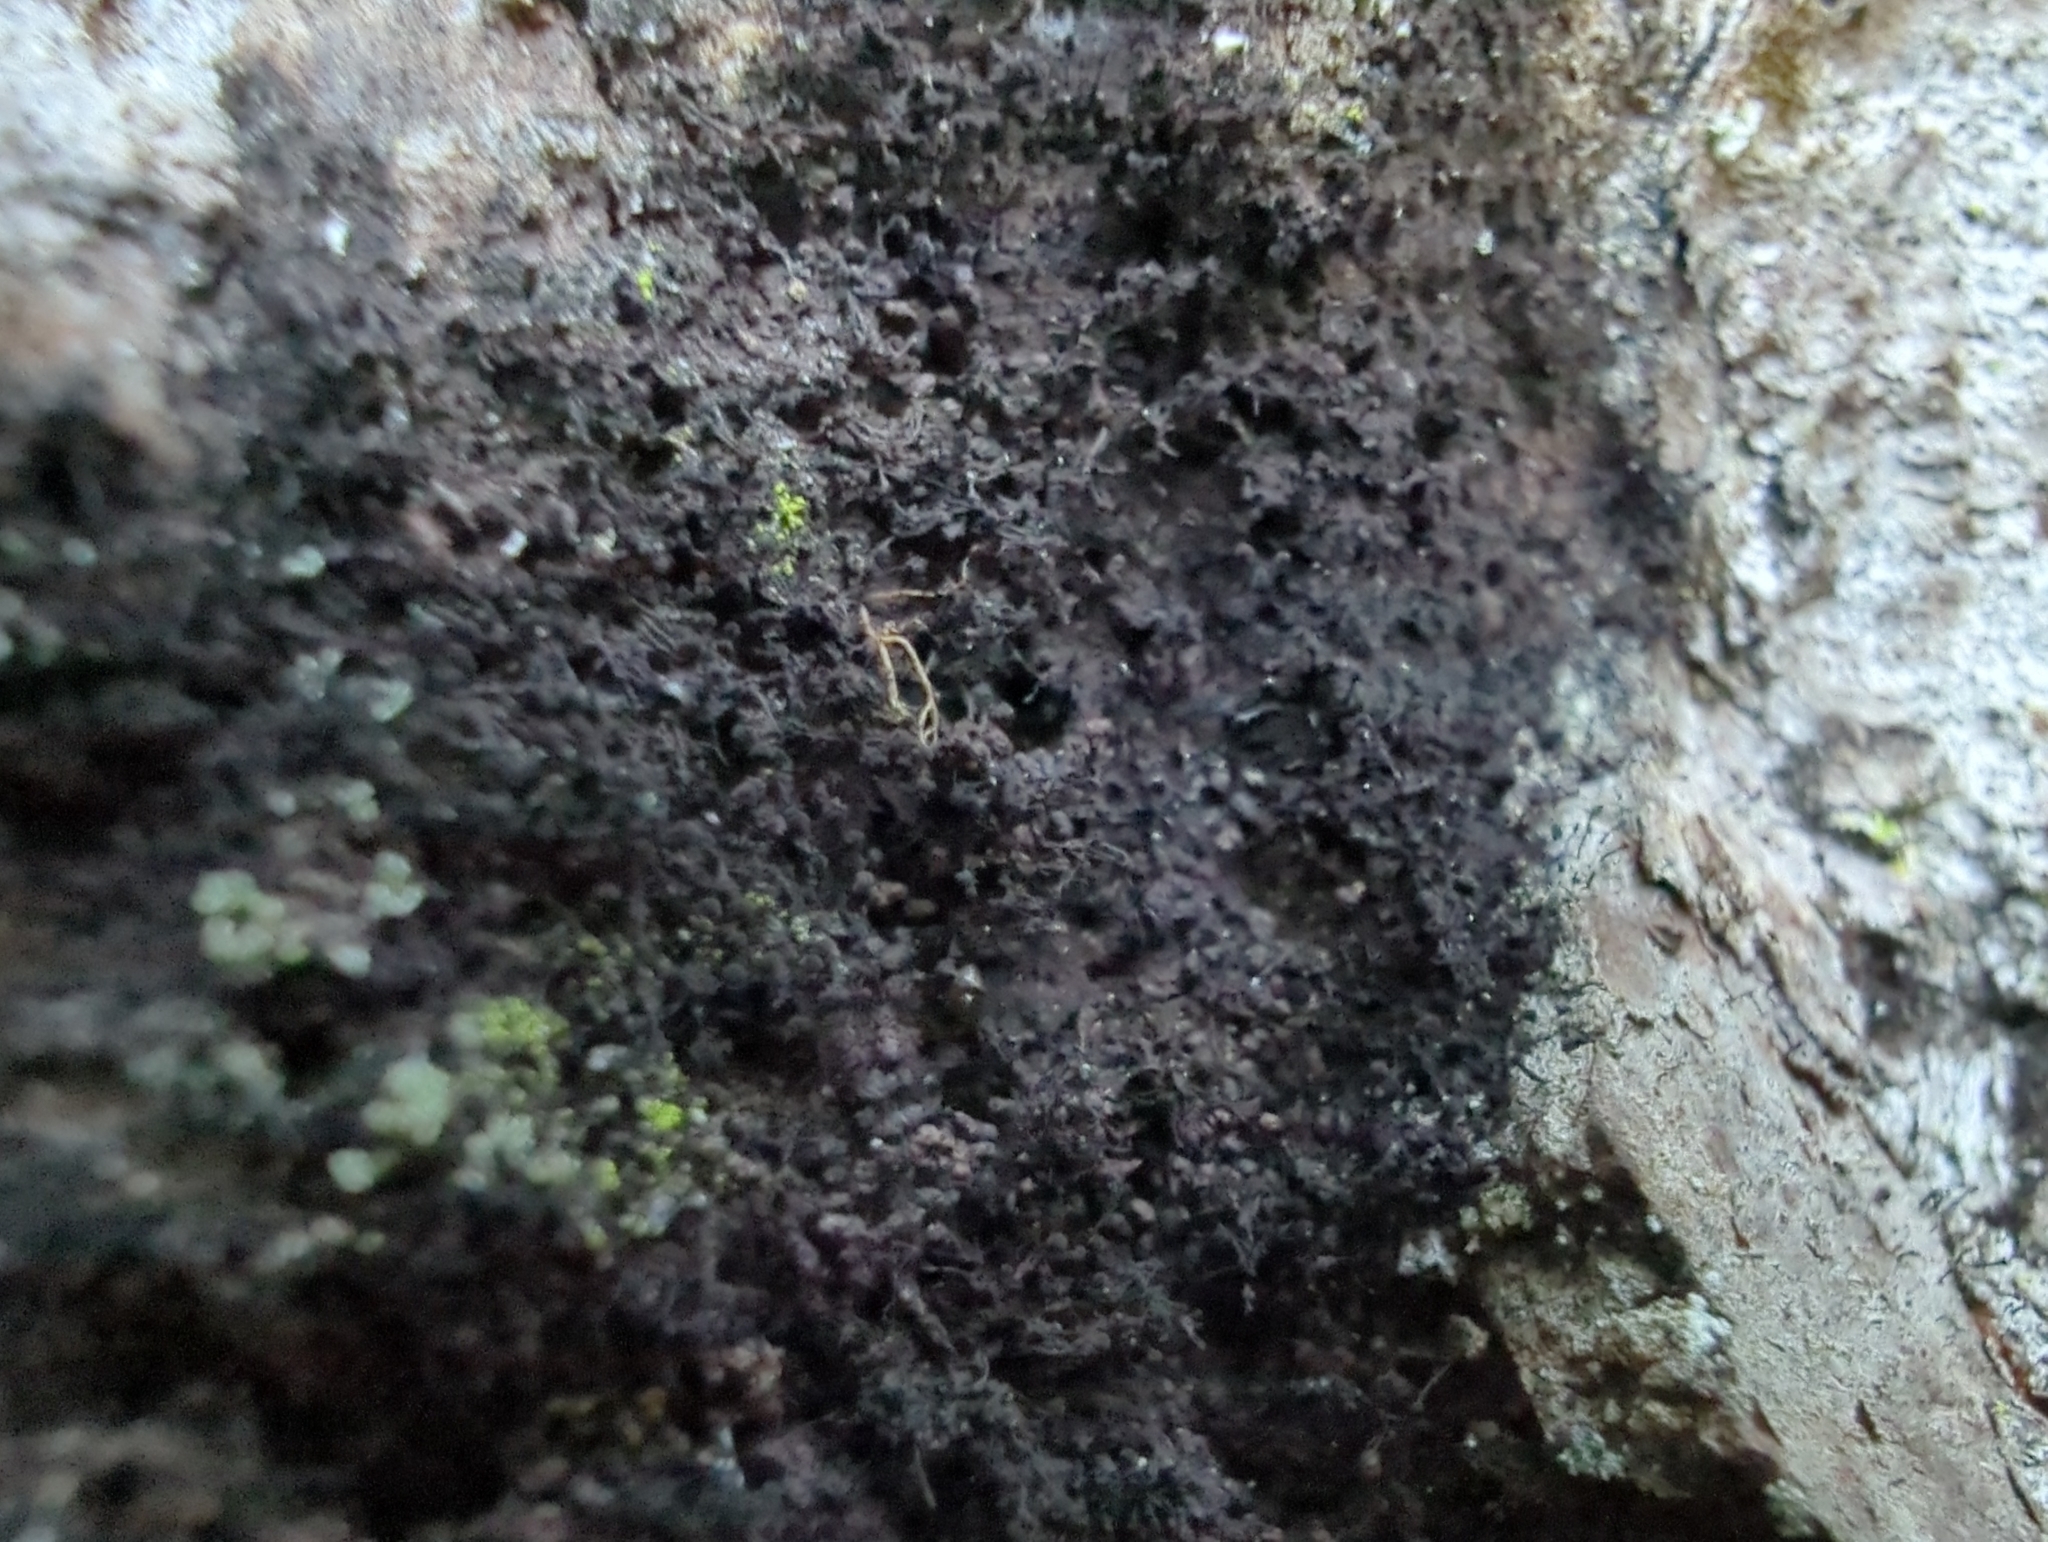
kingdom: Fungi
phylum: Ascomycota
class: Leotiomycetes
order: Helotiales
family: Amorphothecaceae
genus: Sorocybe
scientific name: Sorocybe resinae
